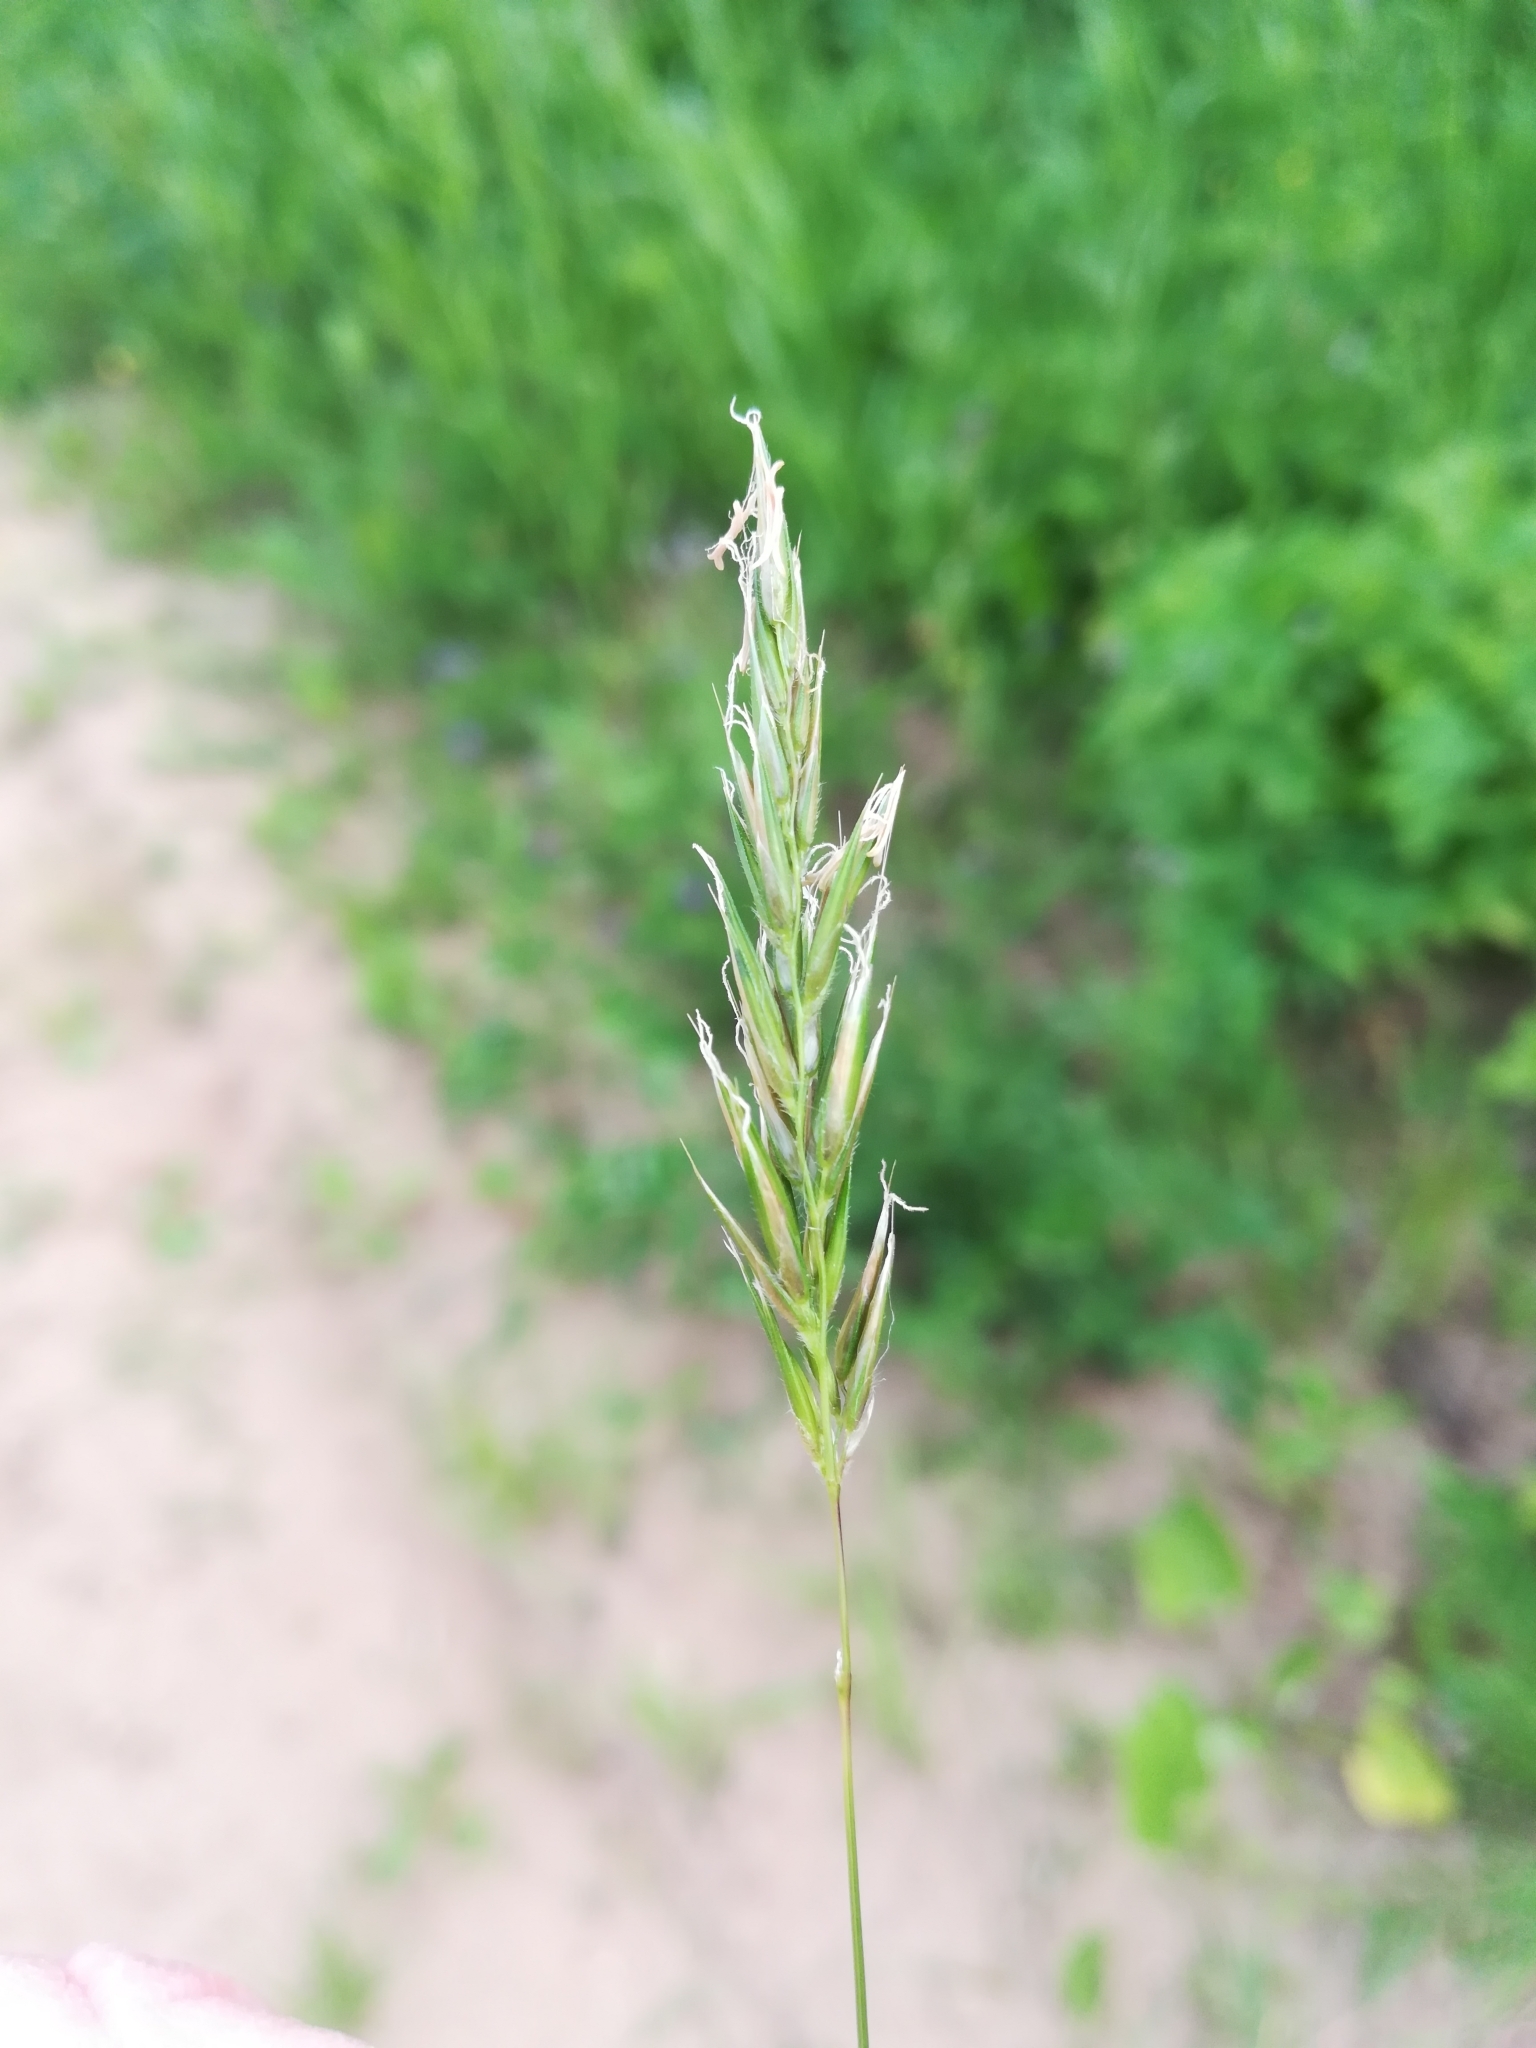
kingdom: Plantae
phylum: Tracheophyta
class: Liliopsida
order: Poales
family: Poaceae
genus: Anthoxanthum
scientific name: Anthoxanthum odoratum
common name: Sweet vernalgrass
